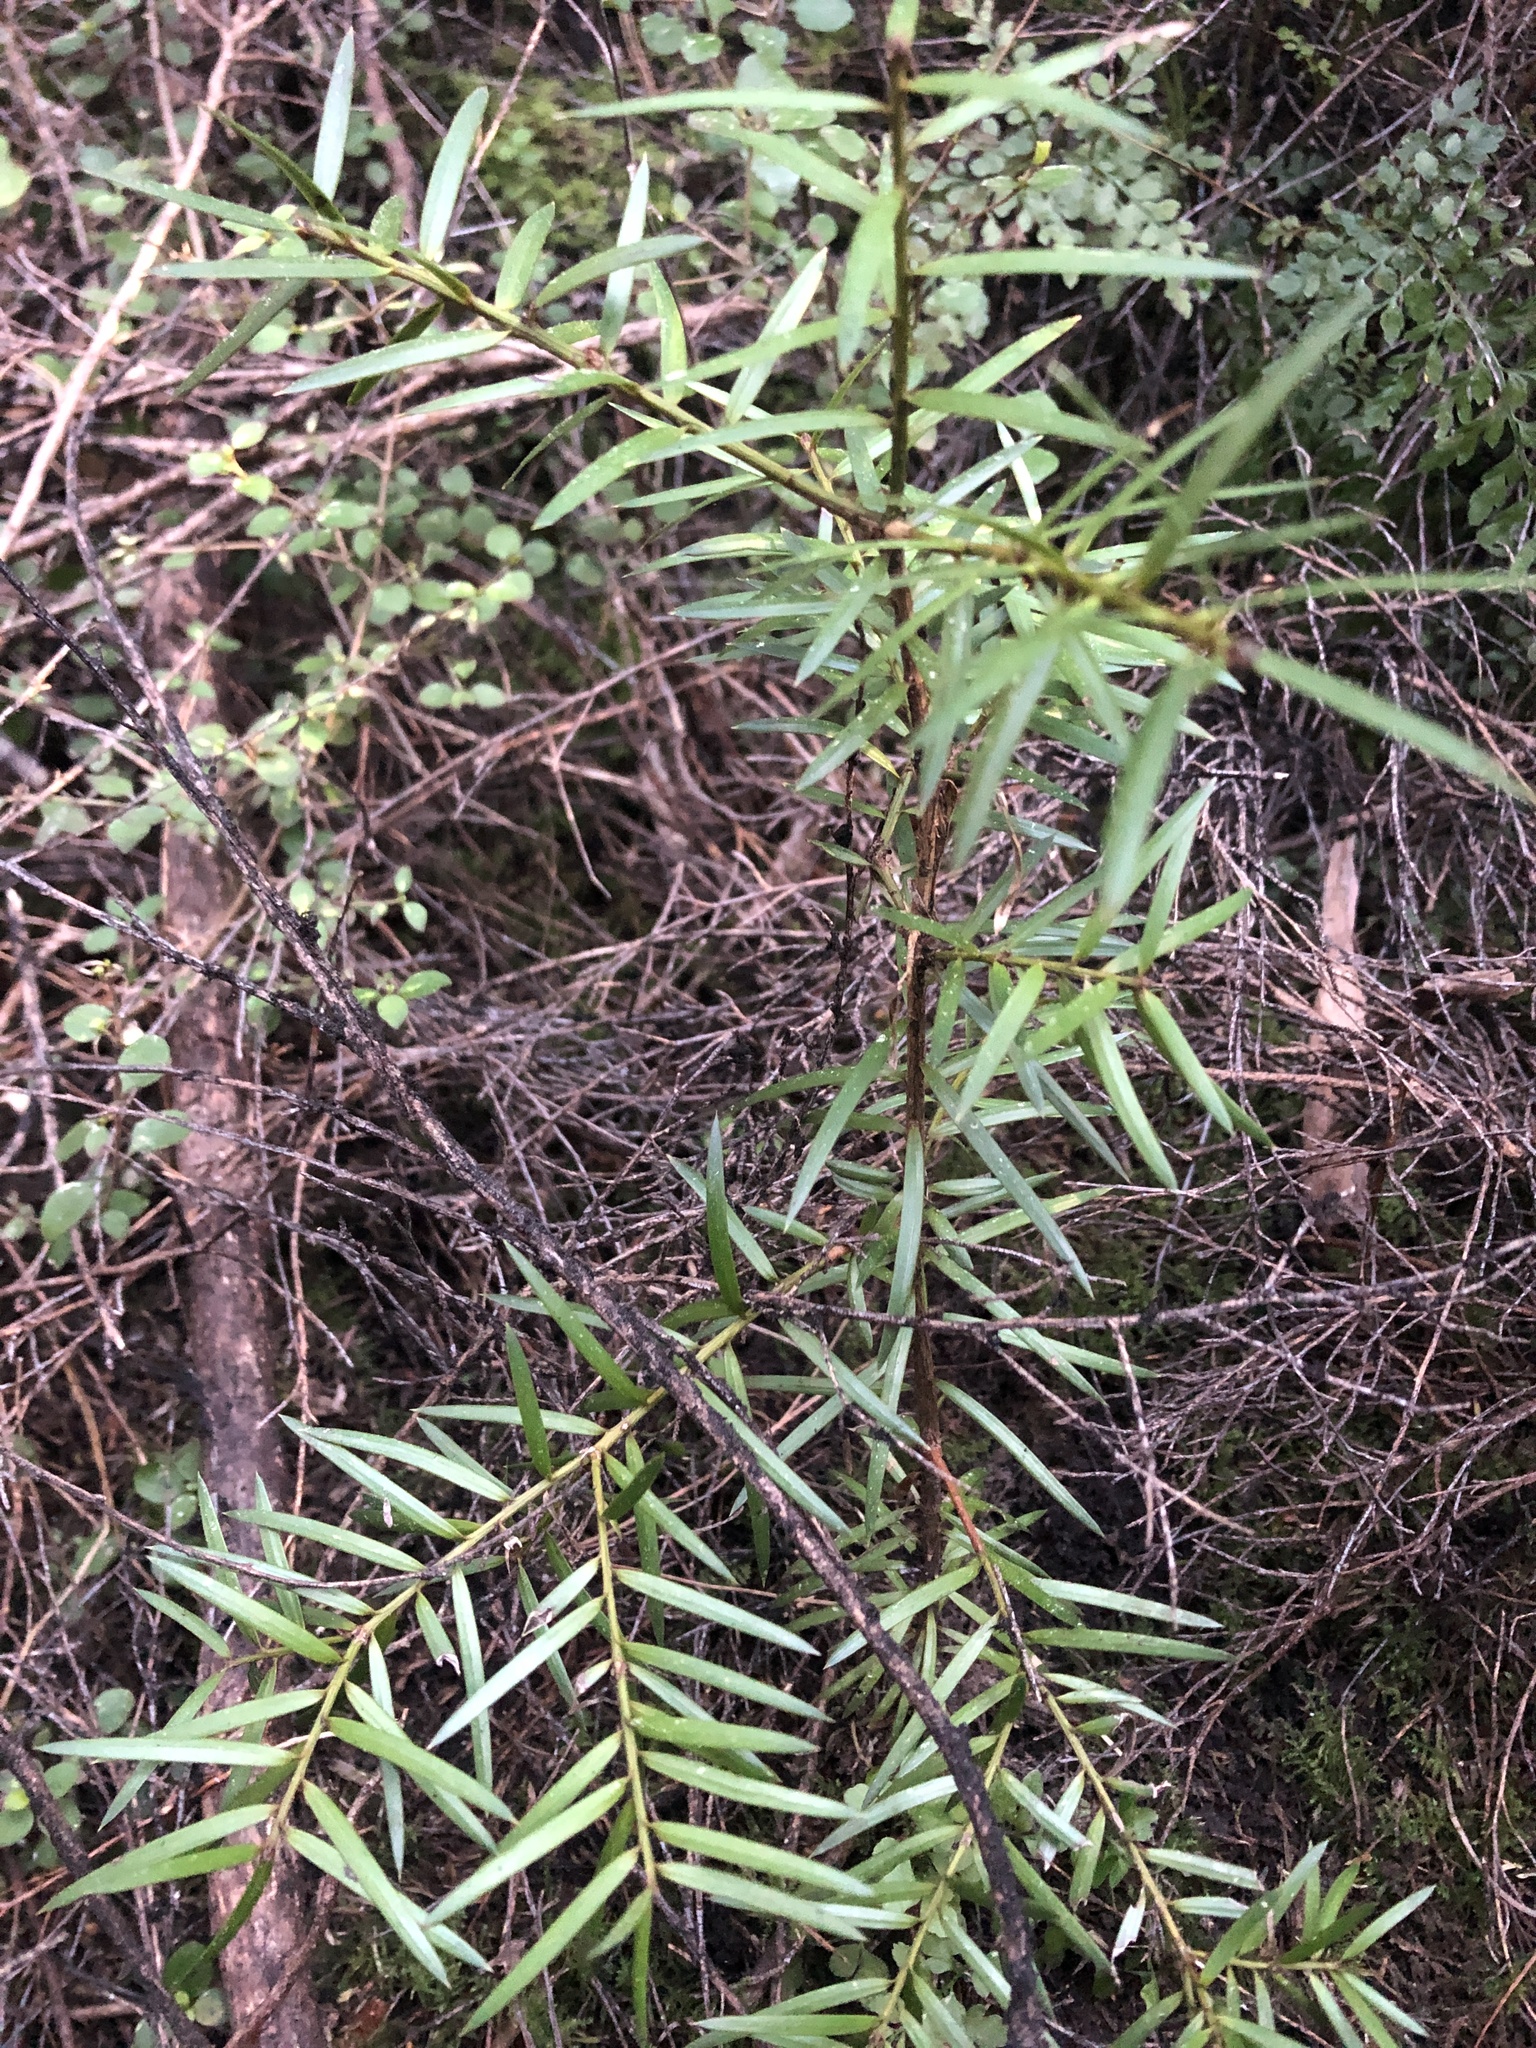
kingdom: Plantae
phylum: Tracheophyta
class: Pinopsida
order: Pinales
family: Podocarpaceae
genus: Podocarpus
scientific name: Podocarpus totara
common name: Totara
